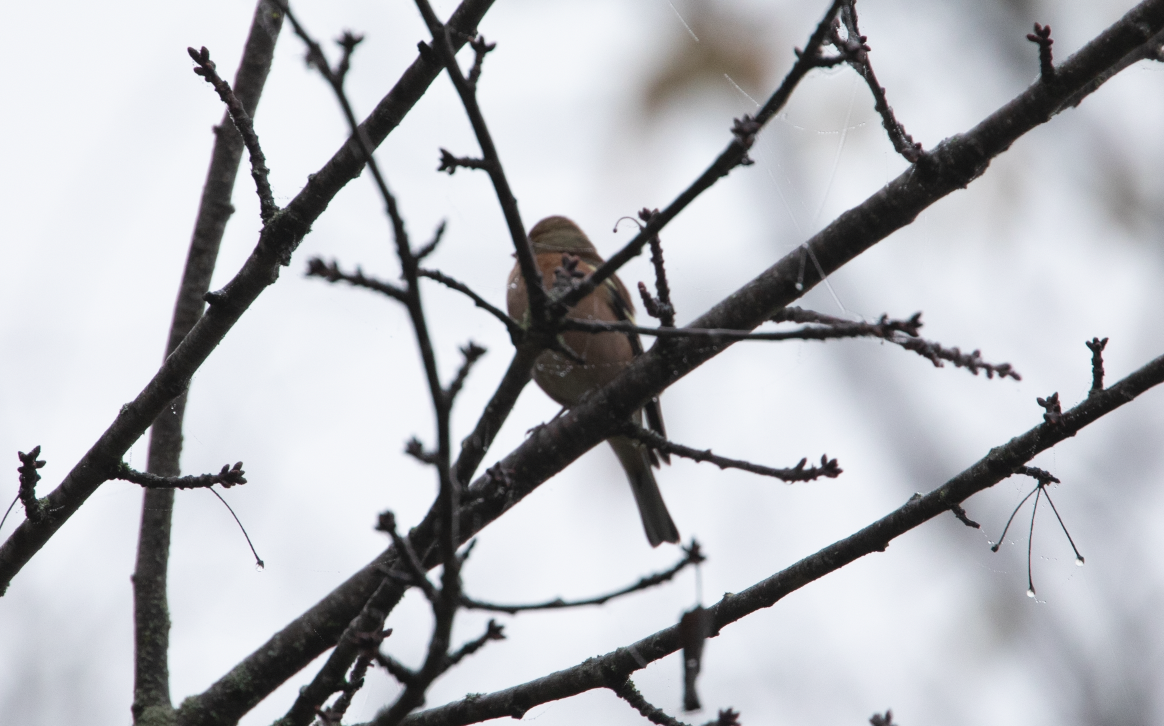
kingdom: Animalia
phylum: Chordata
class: Aves
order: Passeriformes
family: Fringillidae
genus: Fringilla
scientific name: Fringilla coelebs
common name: Common chaffinch
